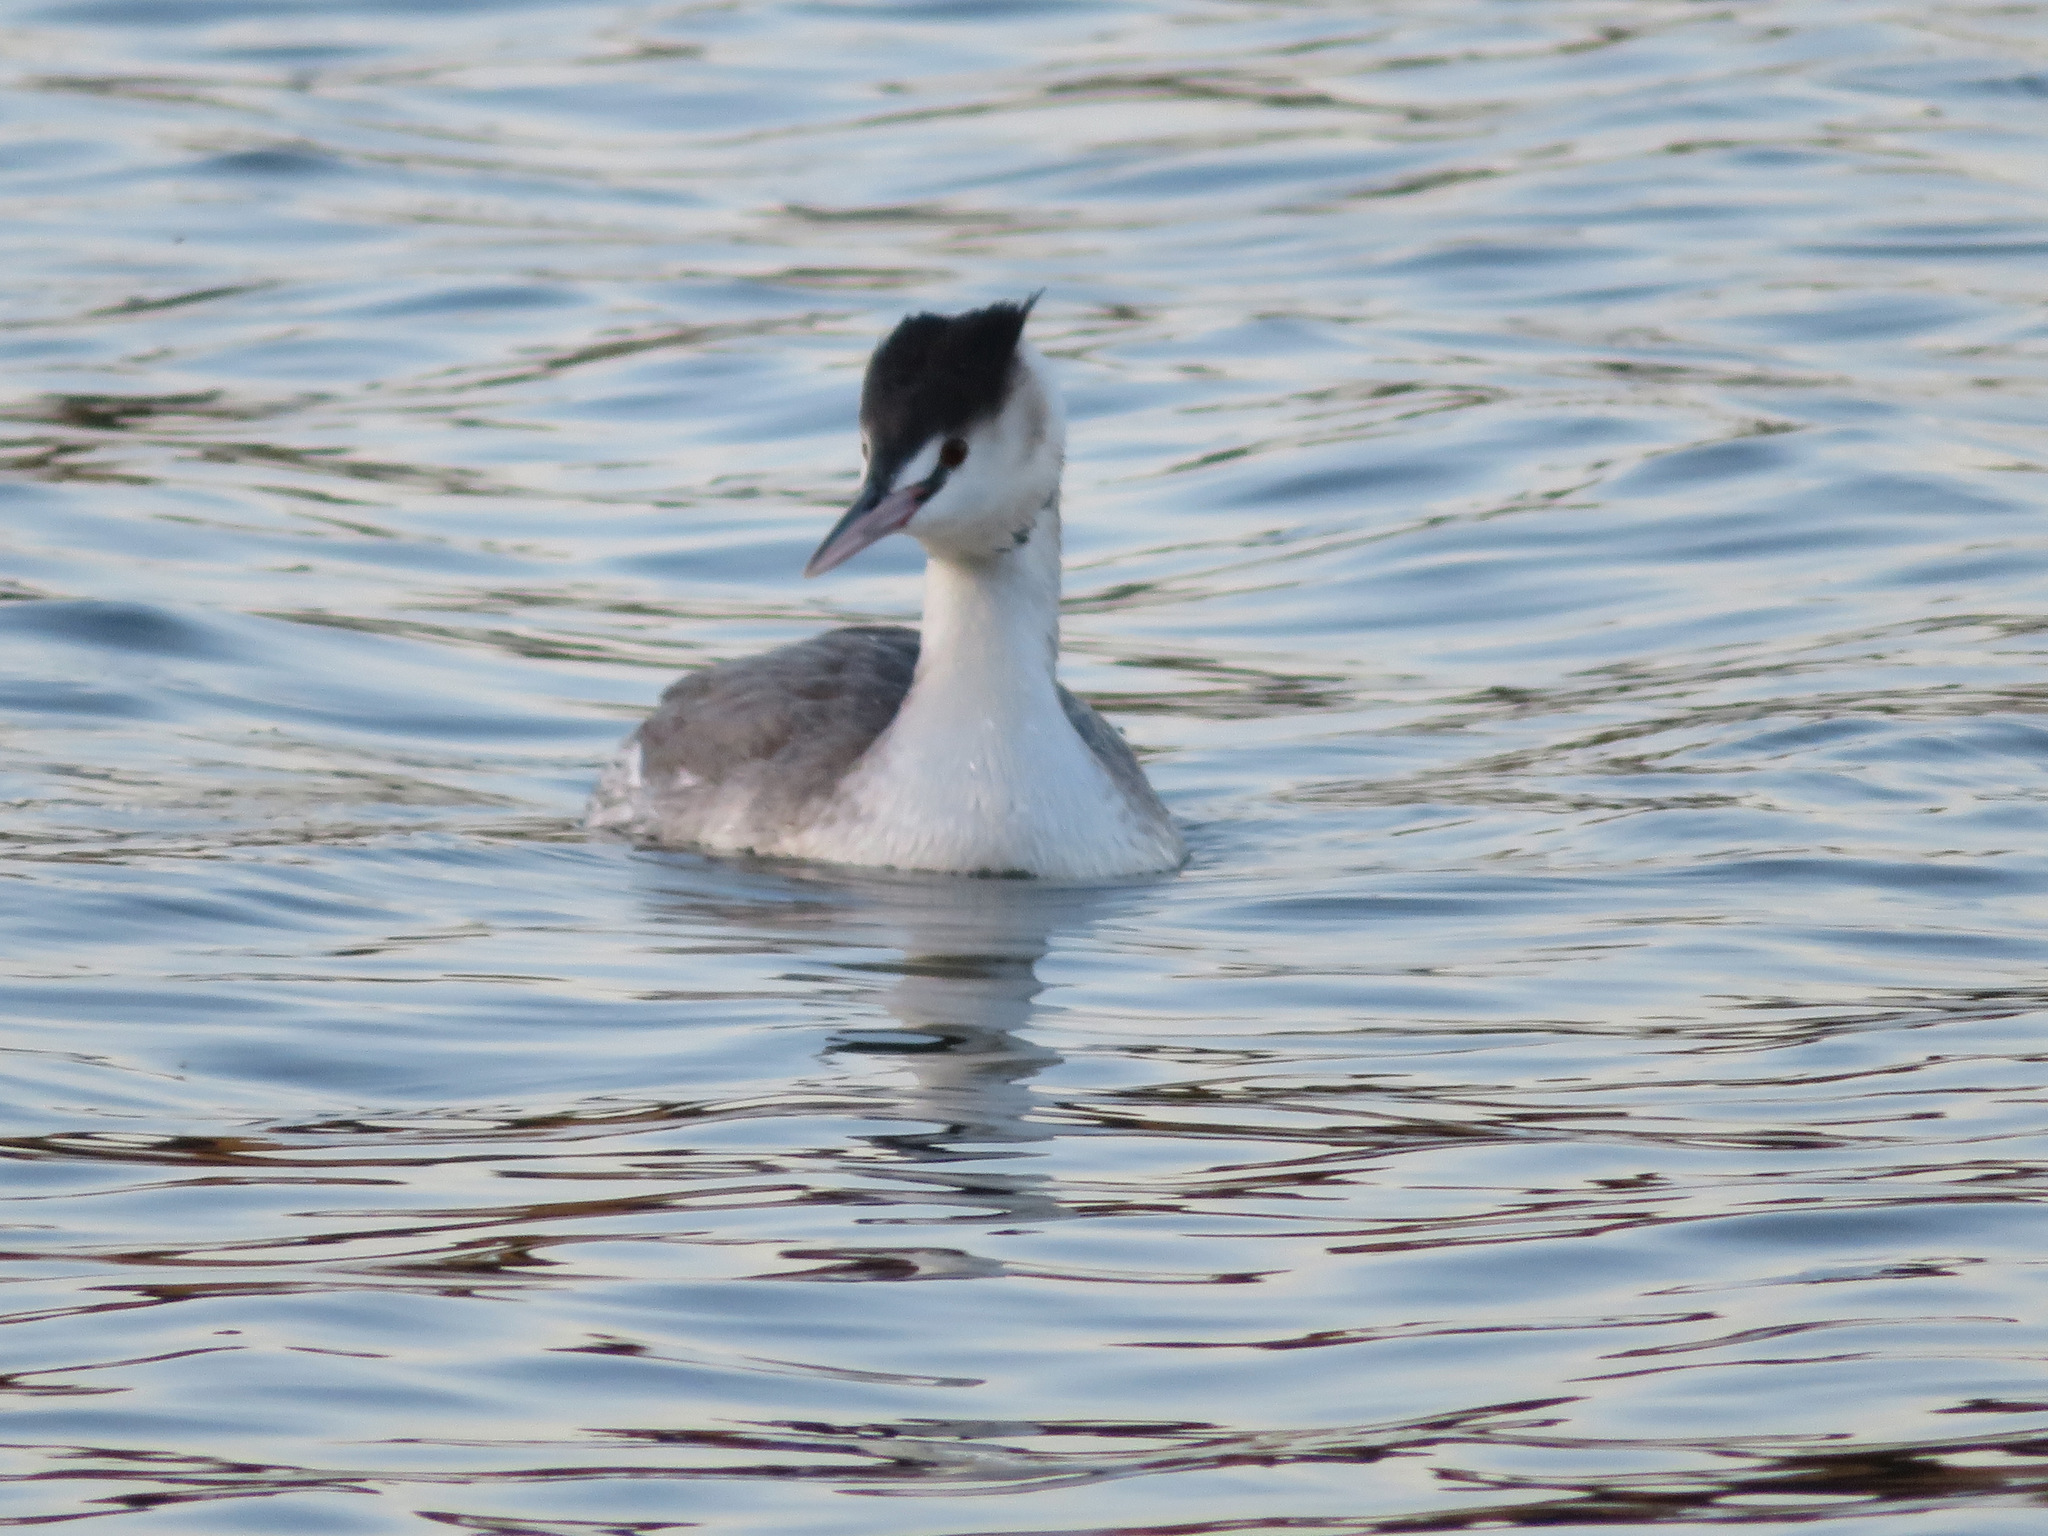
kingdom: Animalia
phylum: Chordata
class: Aves
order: Podicipediformes
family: Podicipedidae
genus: Podiceps
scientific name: Podiceps cristatus
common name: Great crested grebe
